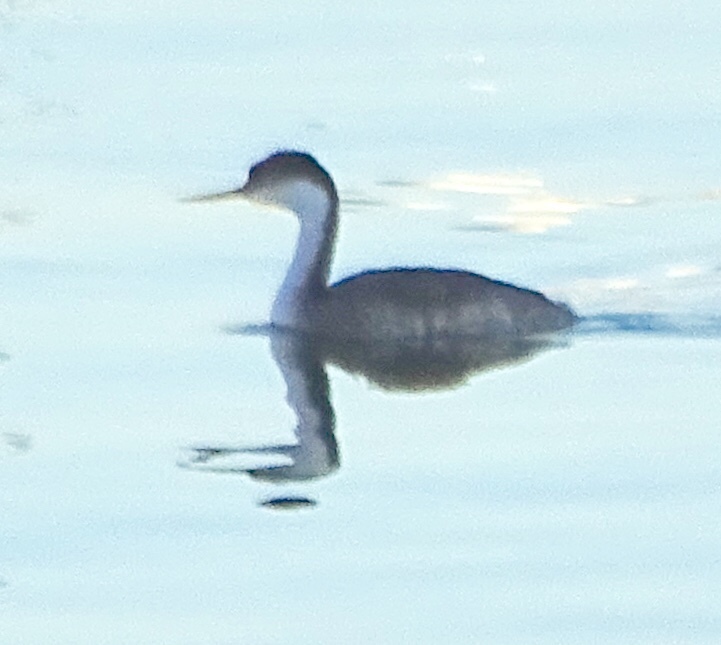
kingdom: Animalia
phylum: Chordata
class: Aves
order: Podicipediformes
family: Podicipedidae
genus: Aechmophorus
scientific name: Aechmophorus occidentalis
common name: Western grebe
